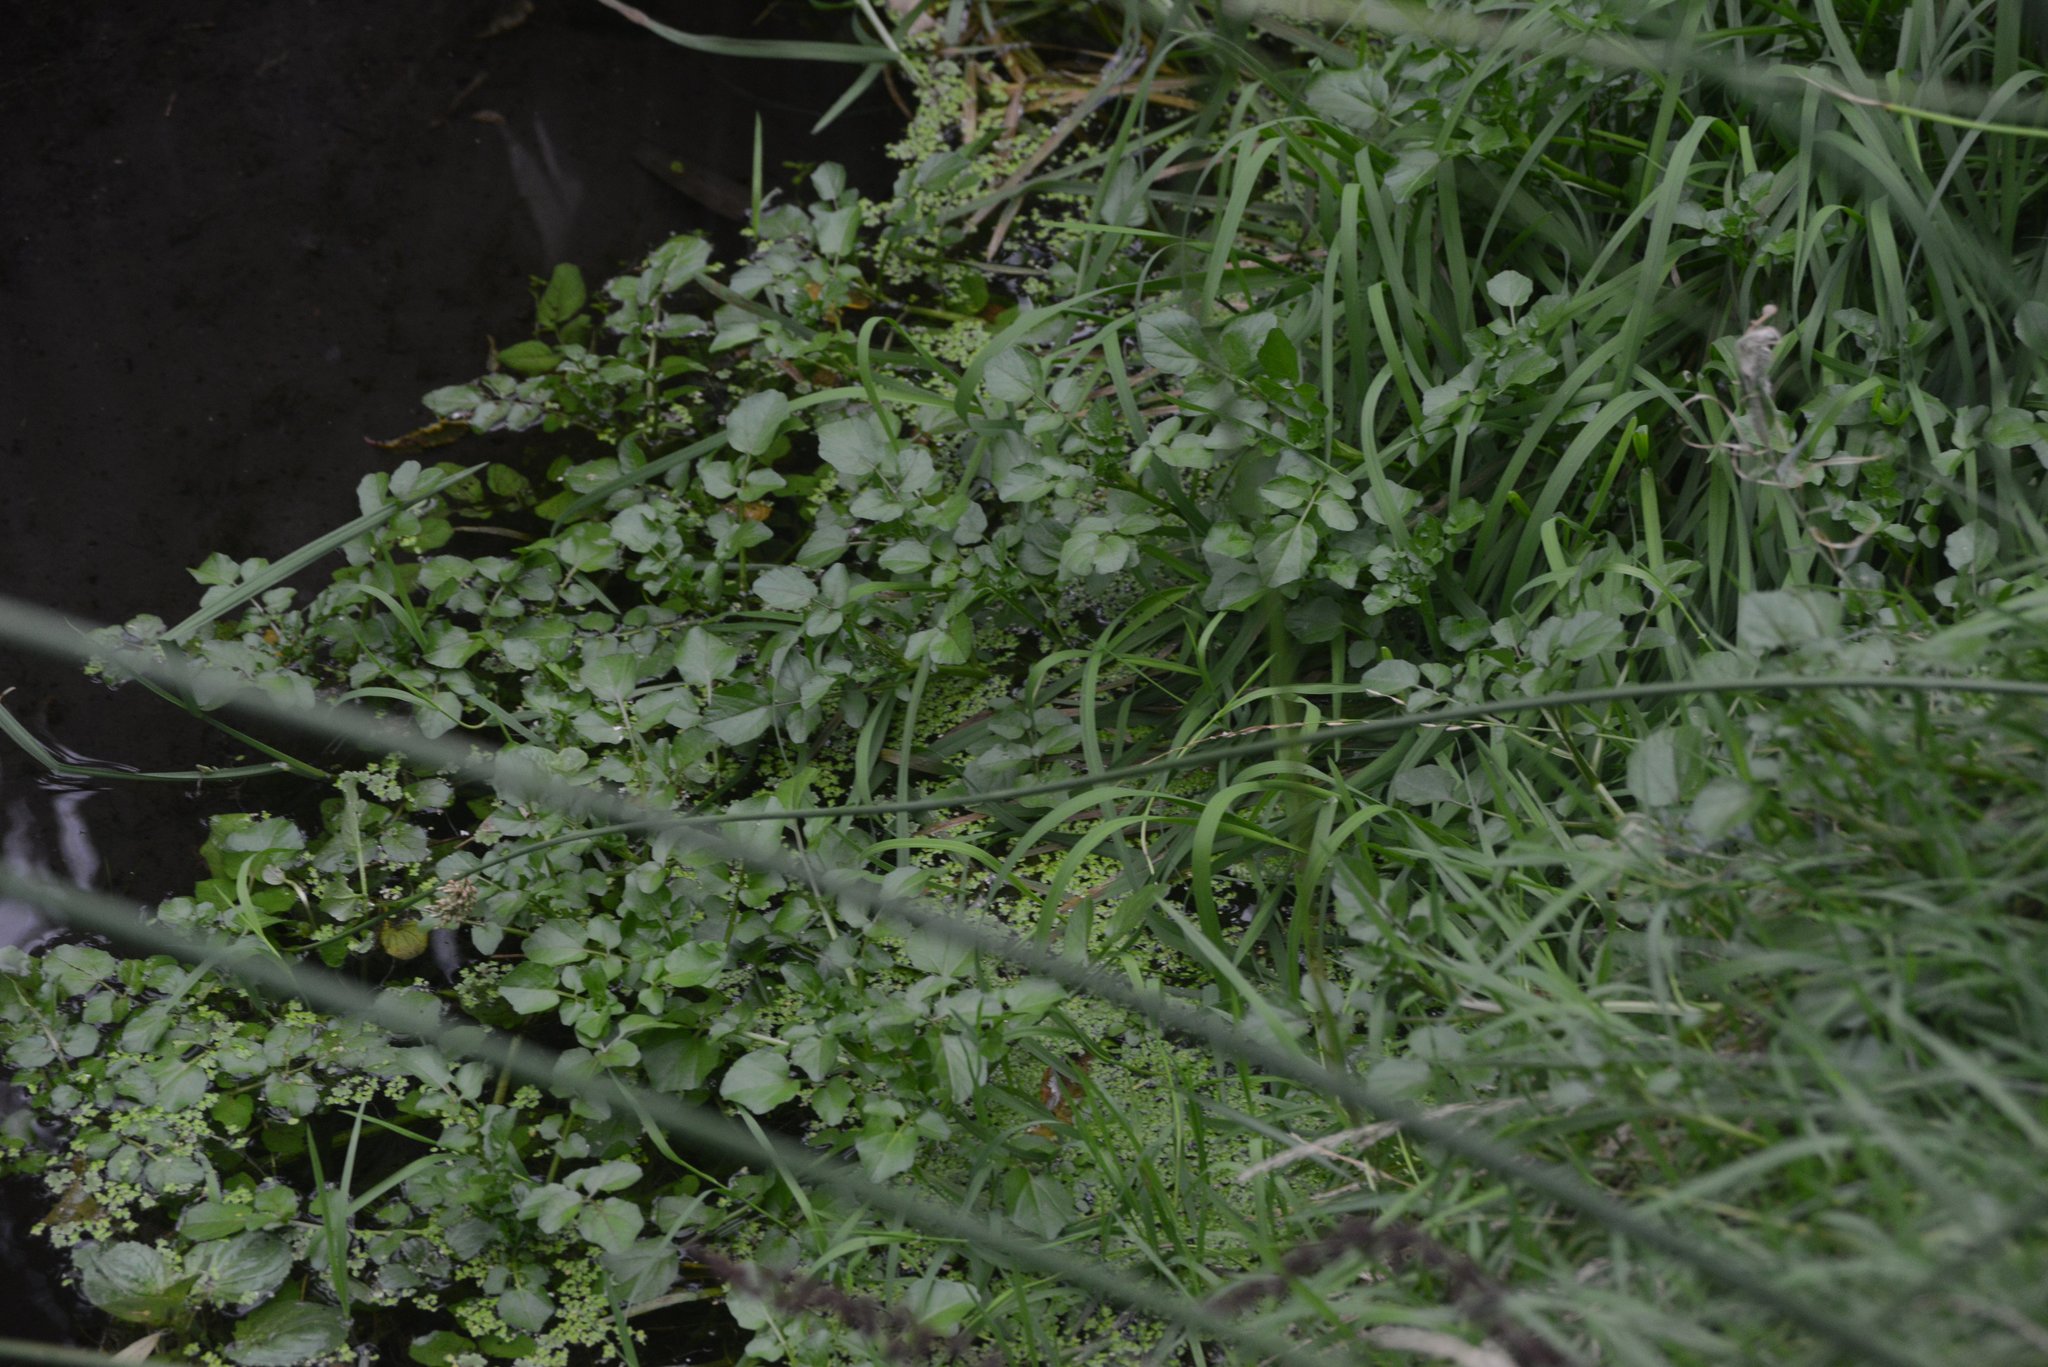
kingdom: Plantae
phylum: Tracheophyta
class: Magnoliopsida
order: Brassicales
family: Brassicaceae
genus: Nasturtium
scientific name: Nasturtium officinale
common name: Watercress
